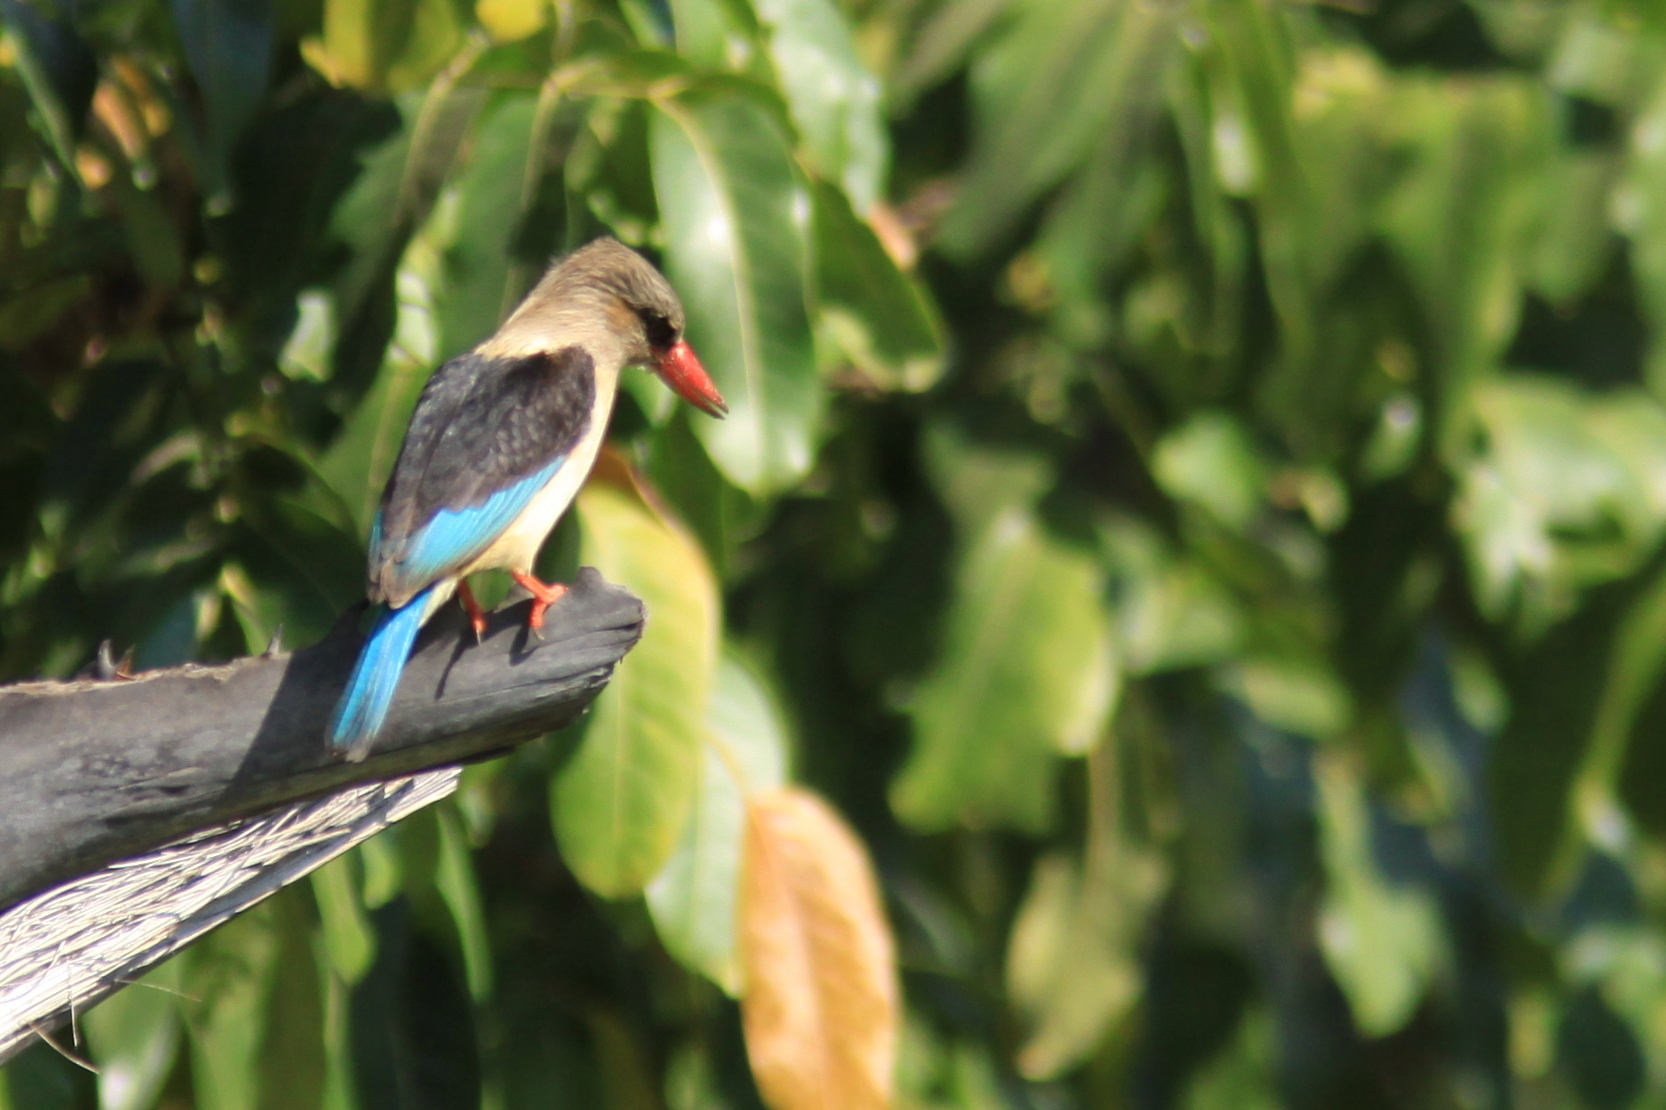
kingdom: Animalia
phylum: Chordata
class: Aves
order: Coraciiformes
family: Alcedinidae
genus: Halcyon
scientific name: Halcyon albiventris
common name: Brown-hooded kingfisher
